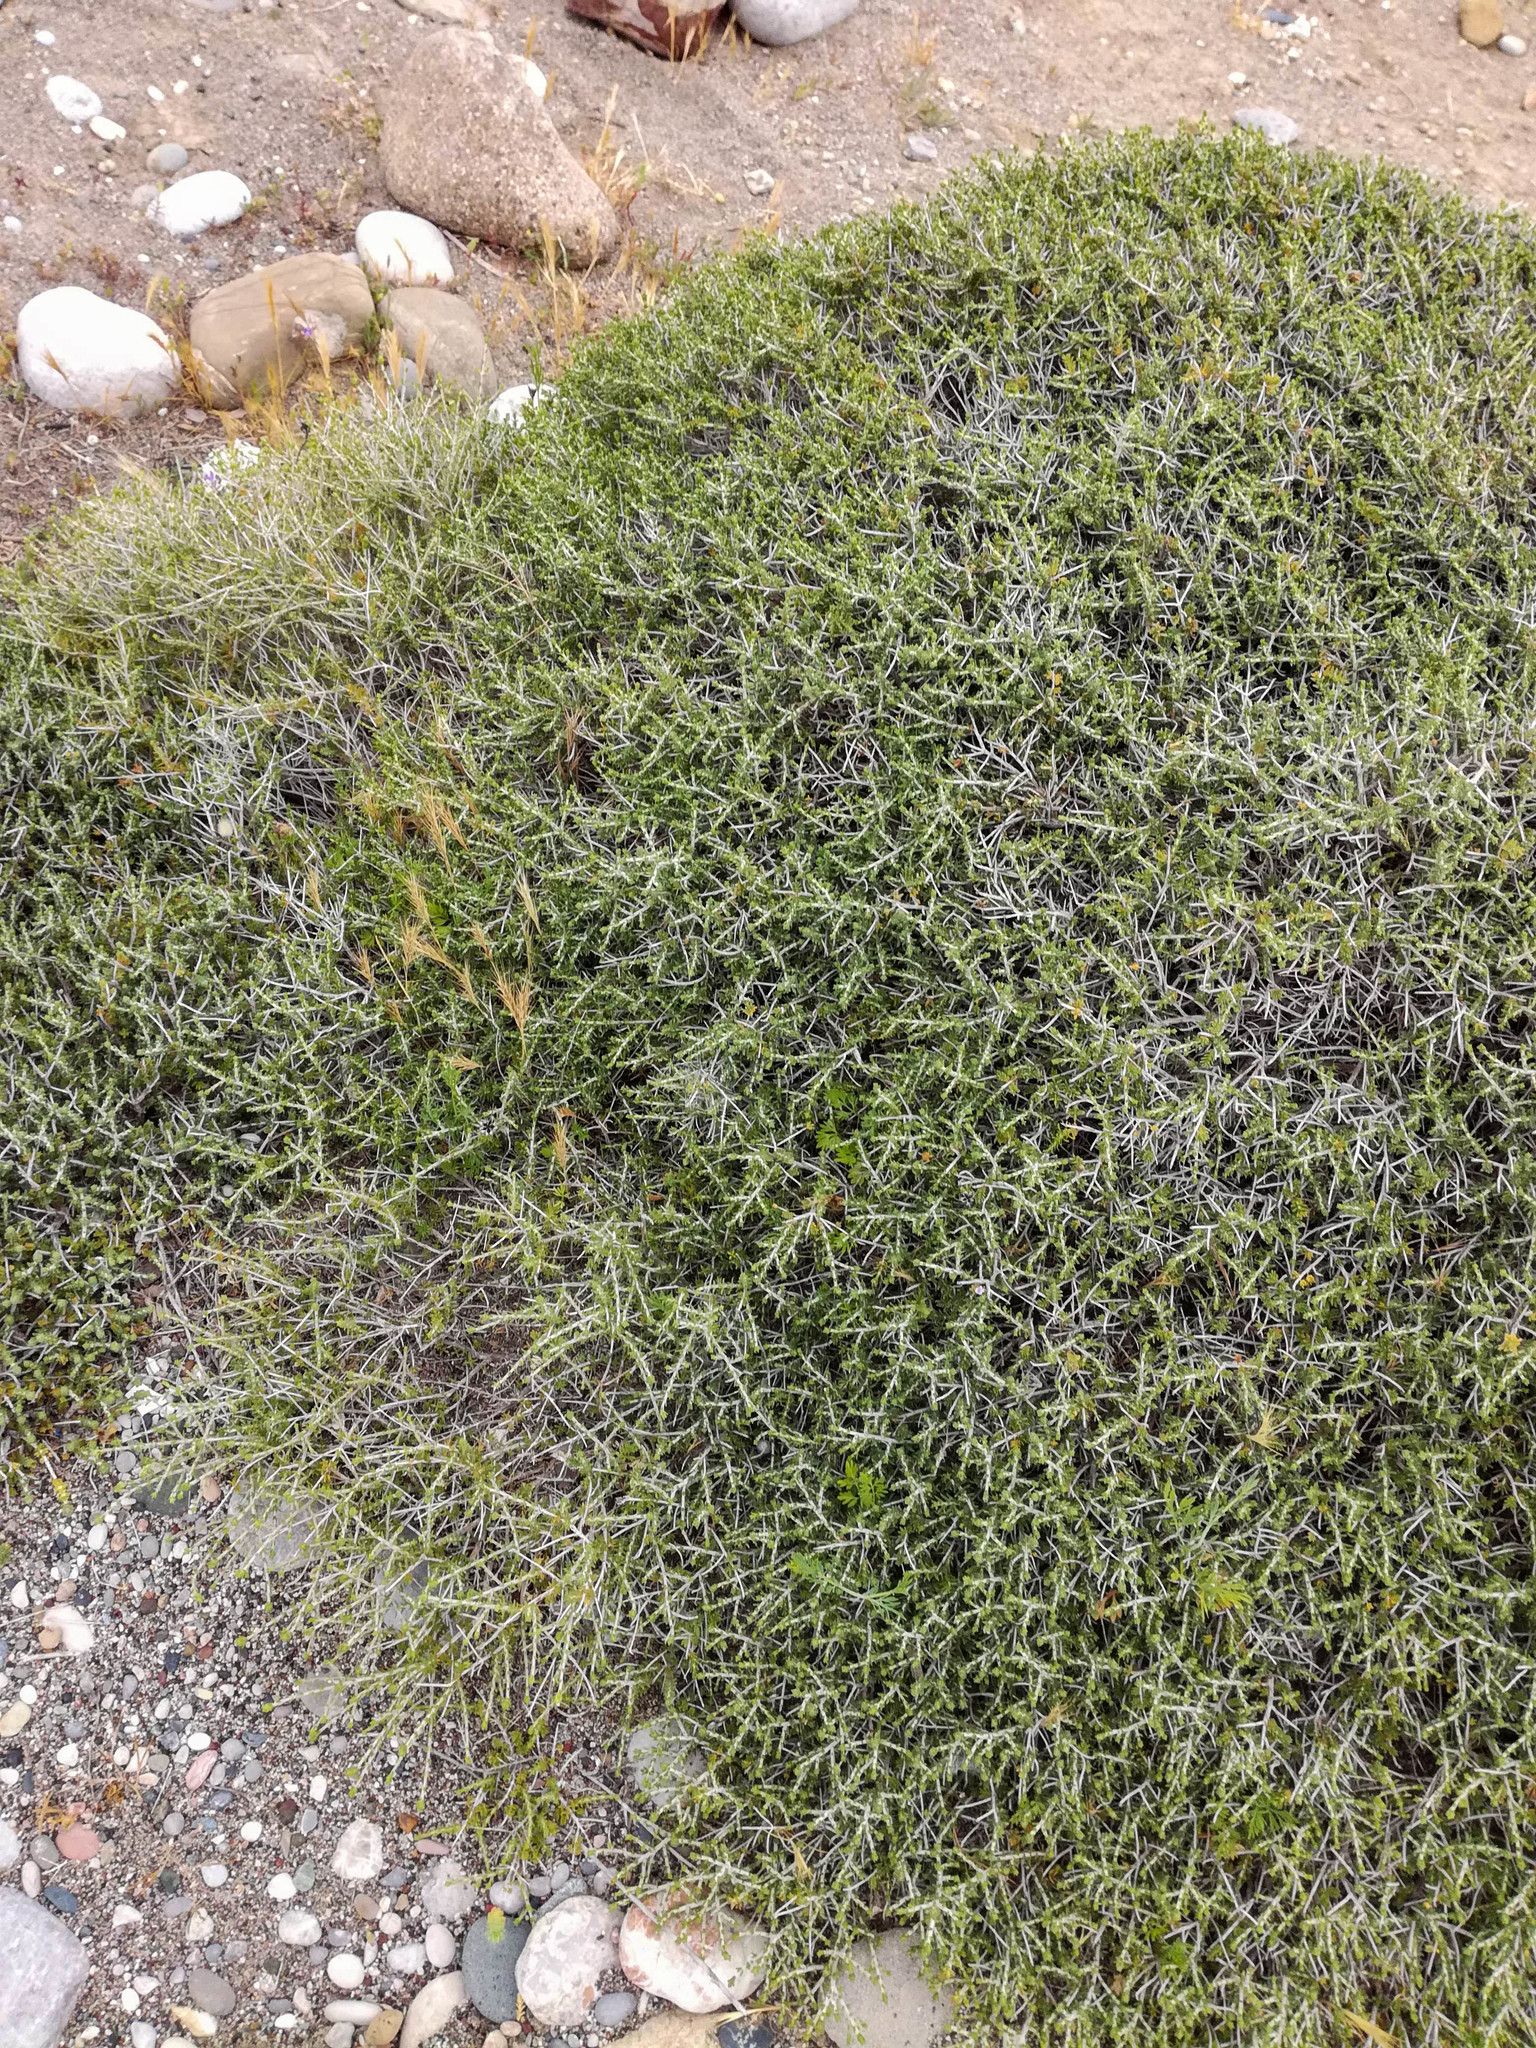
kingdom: Plantae
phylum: Tracheophyta
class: Magnoliopsida
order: Lamiales
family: Lamiaceae
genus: Thymbra
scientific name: Thymbra capitata
